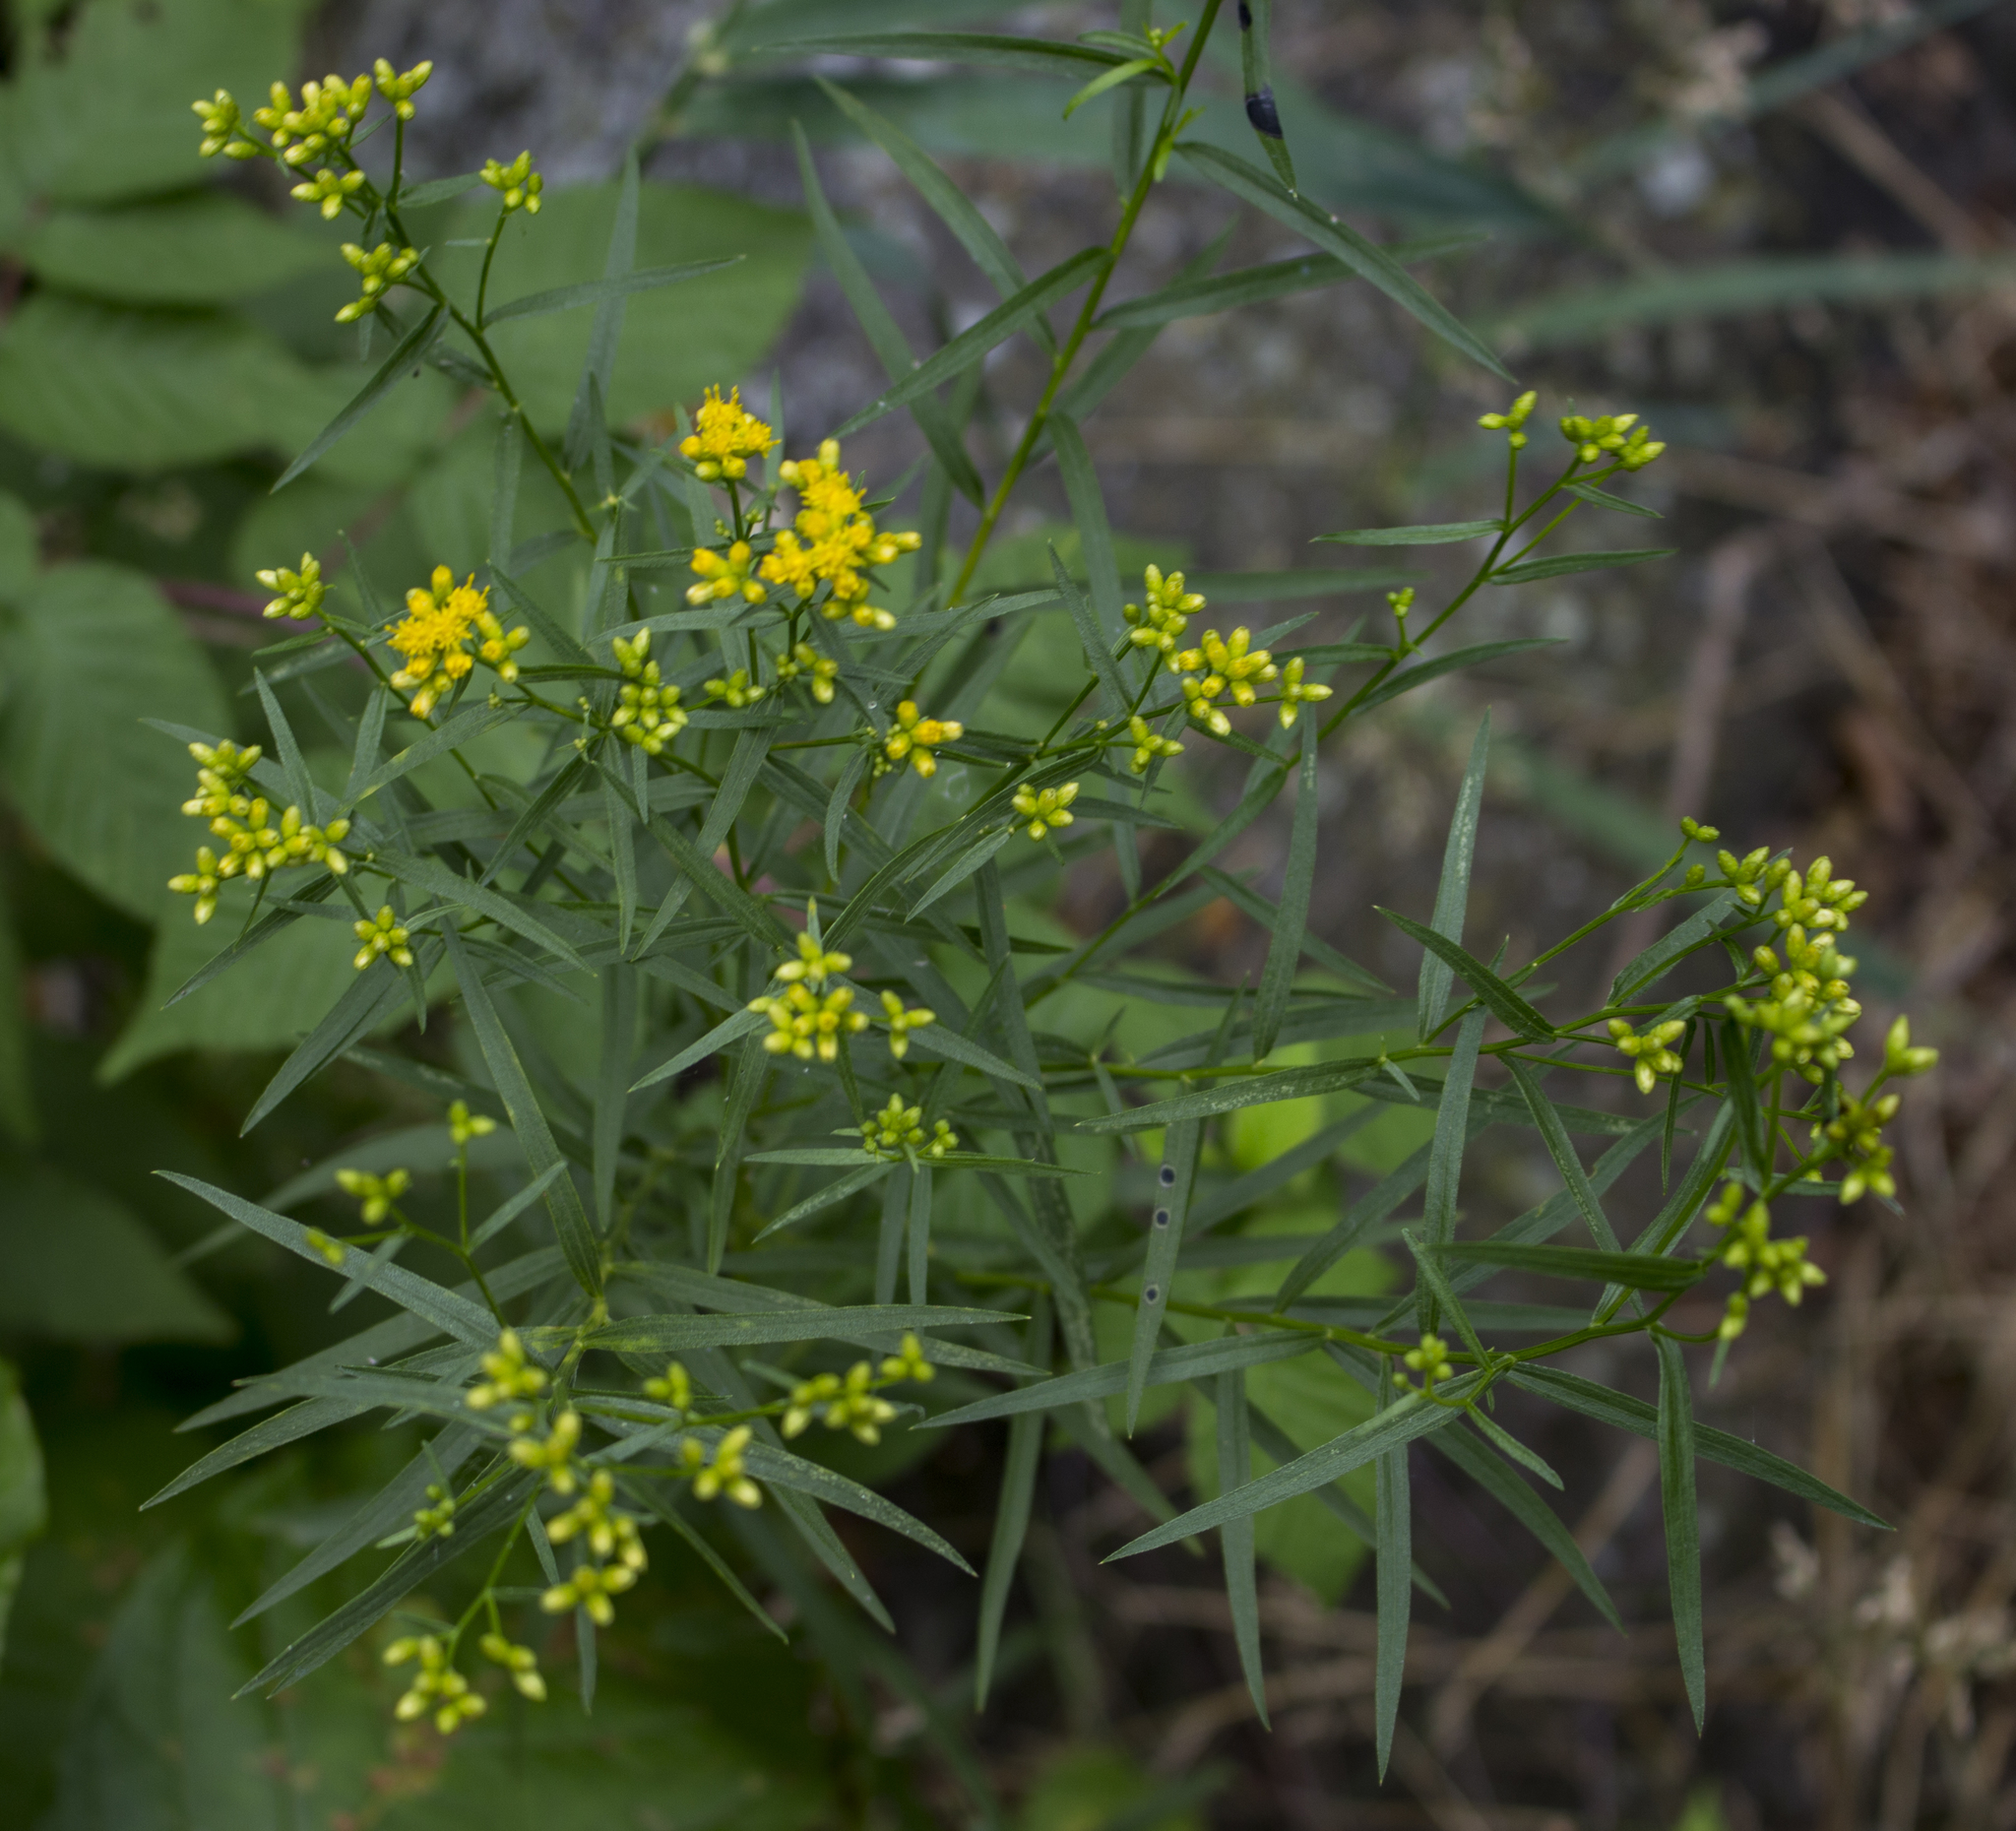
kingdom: Plantae
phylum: Tracheophyta
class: Magnoliopsida
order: Asterales
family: Asteraceae
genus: Euthamia
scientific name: Euthamia graminifolia
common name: Common goldentop
